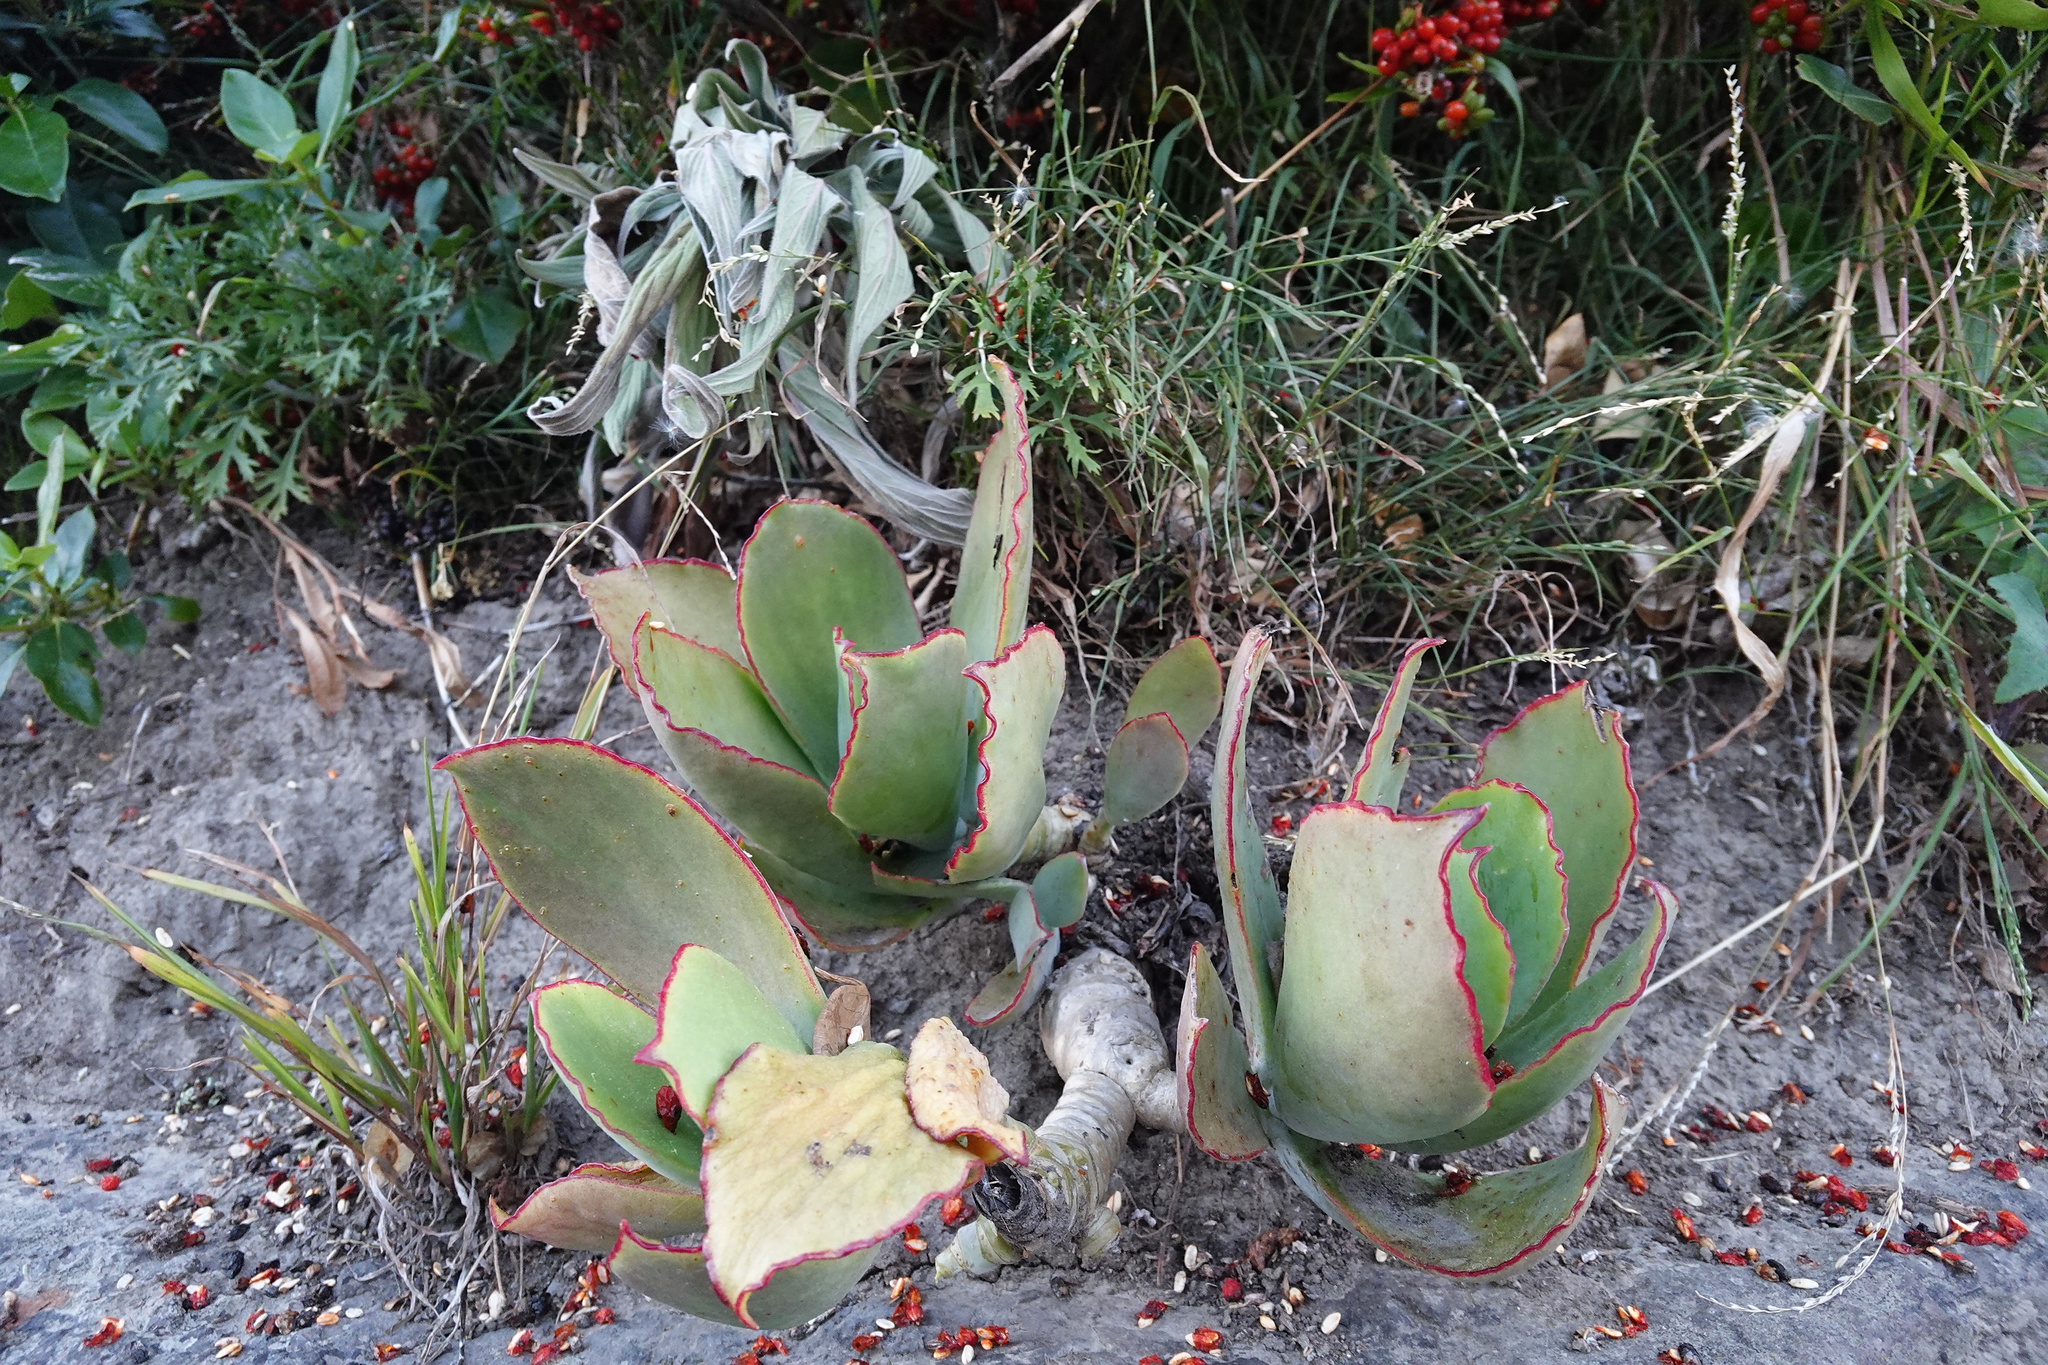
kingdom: Plantae
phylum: Tracheophyta
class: Magnoliopsida
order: Saxifragales
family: Crassulaceae
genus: Cotyledon
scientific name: Cotyledon orbiculata
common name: Pig's ear
